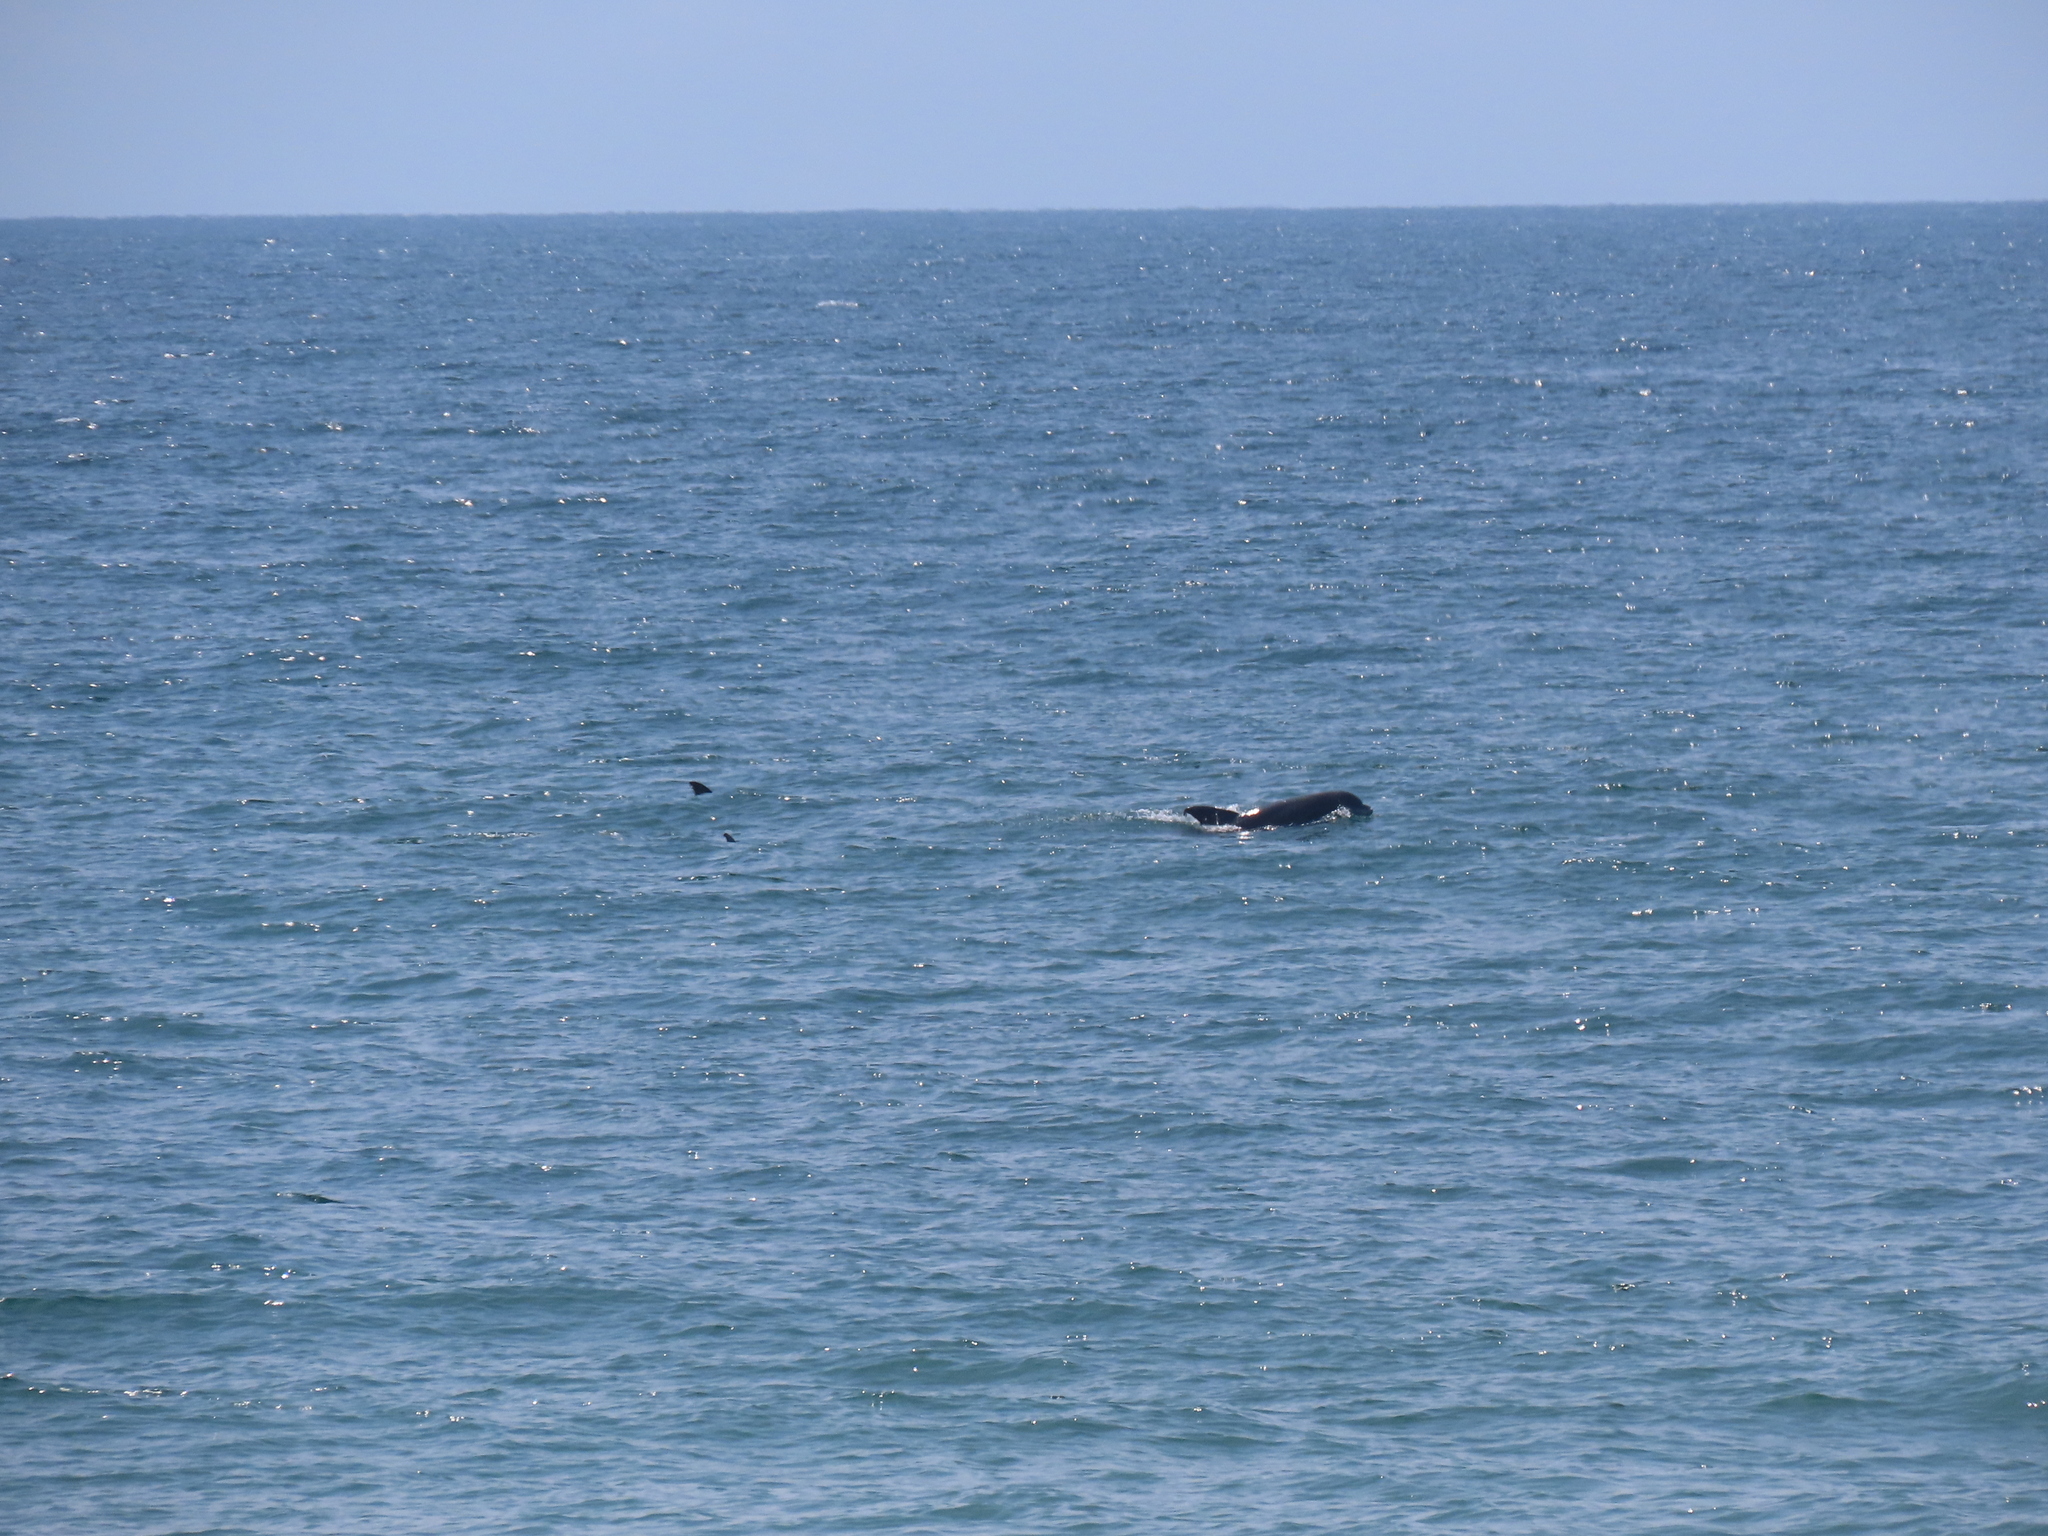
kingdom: Animalia
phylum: Chordata
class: Mammalia
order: Cetacea
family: Delphinidae
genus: Tursiops
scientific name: Tursiops truncatus
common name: Bottlenose dolphin
